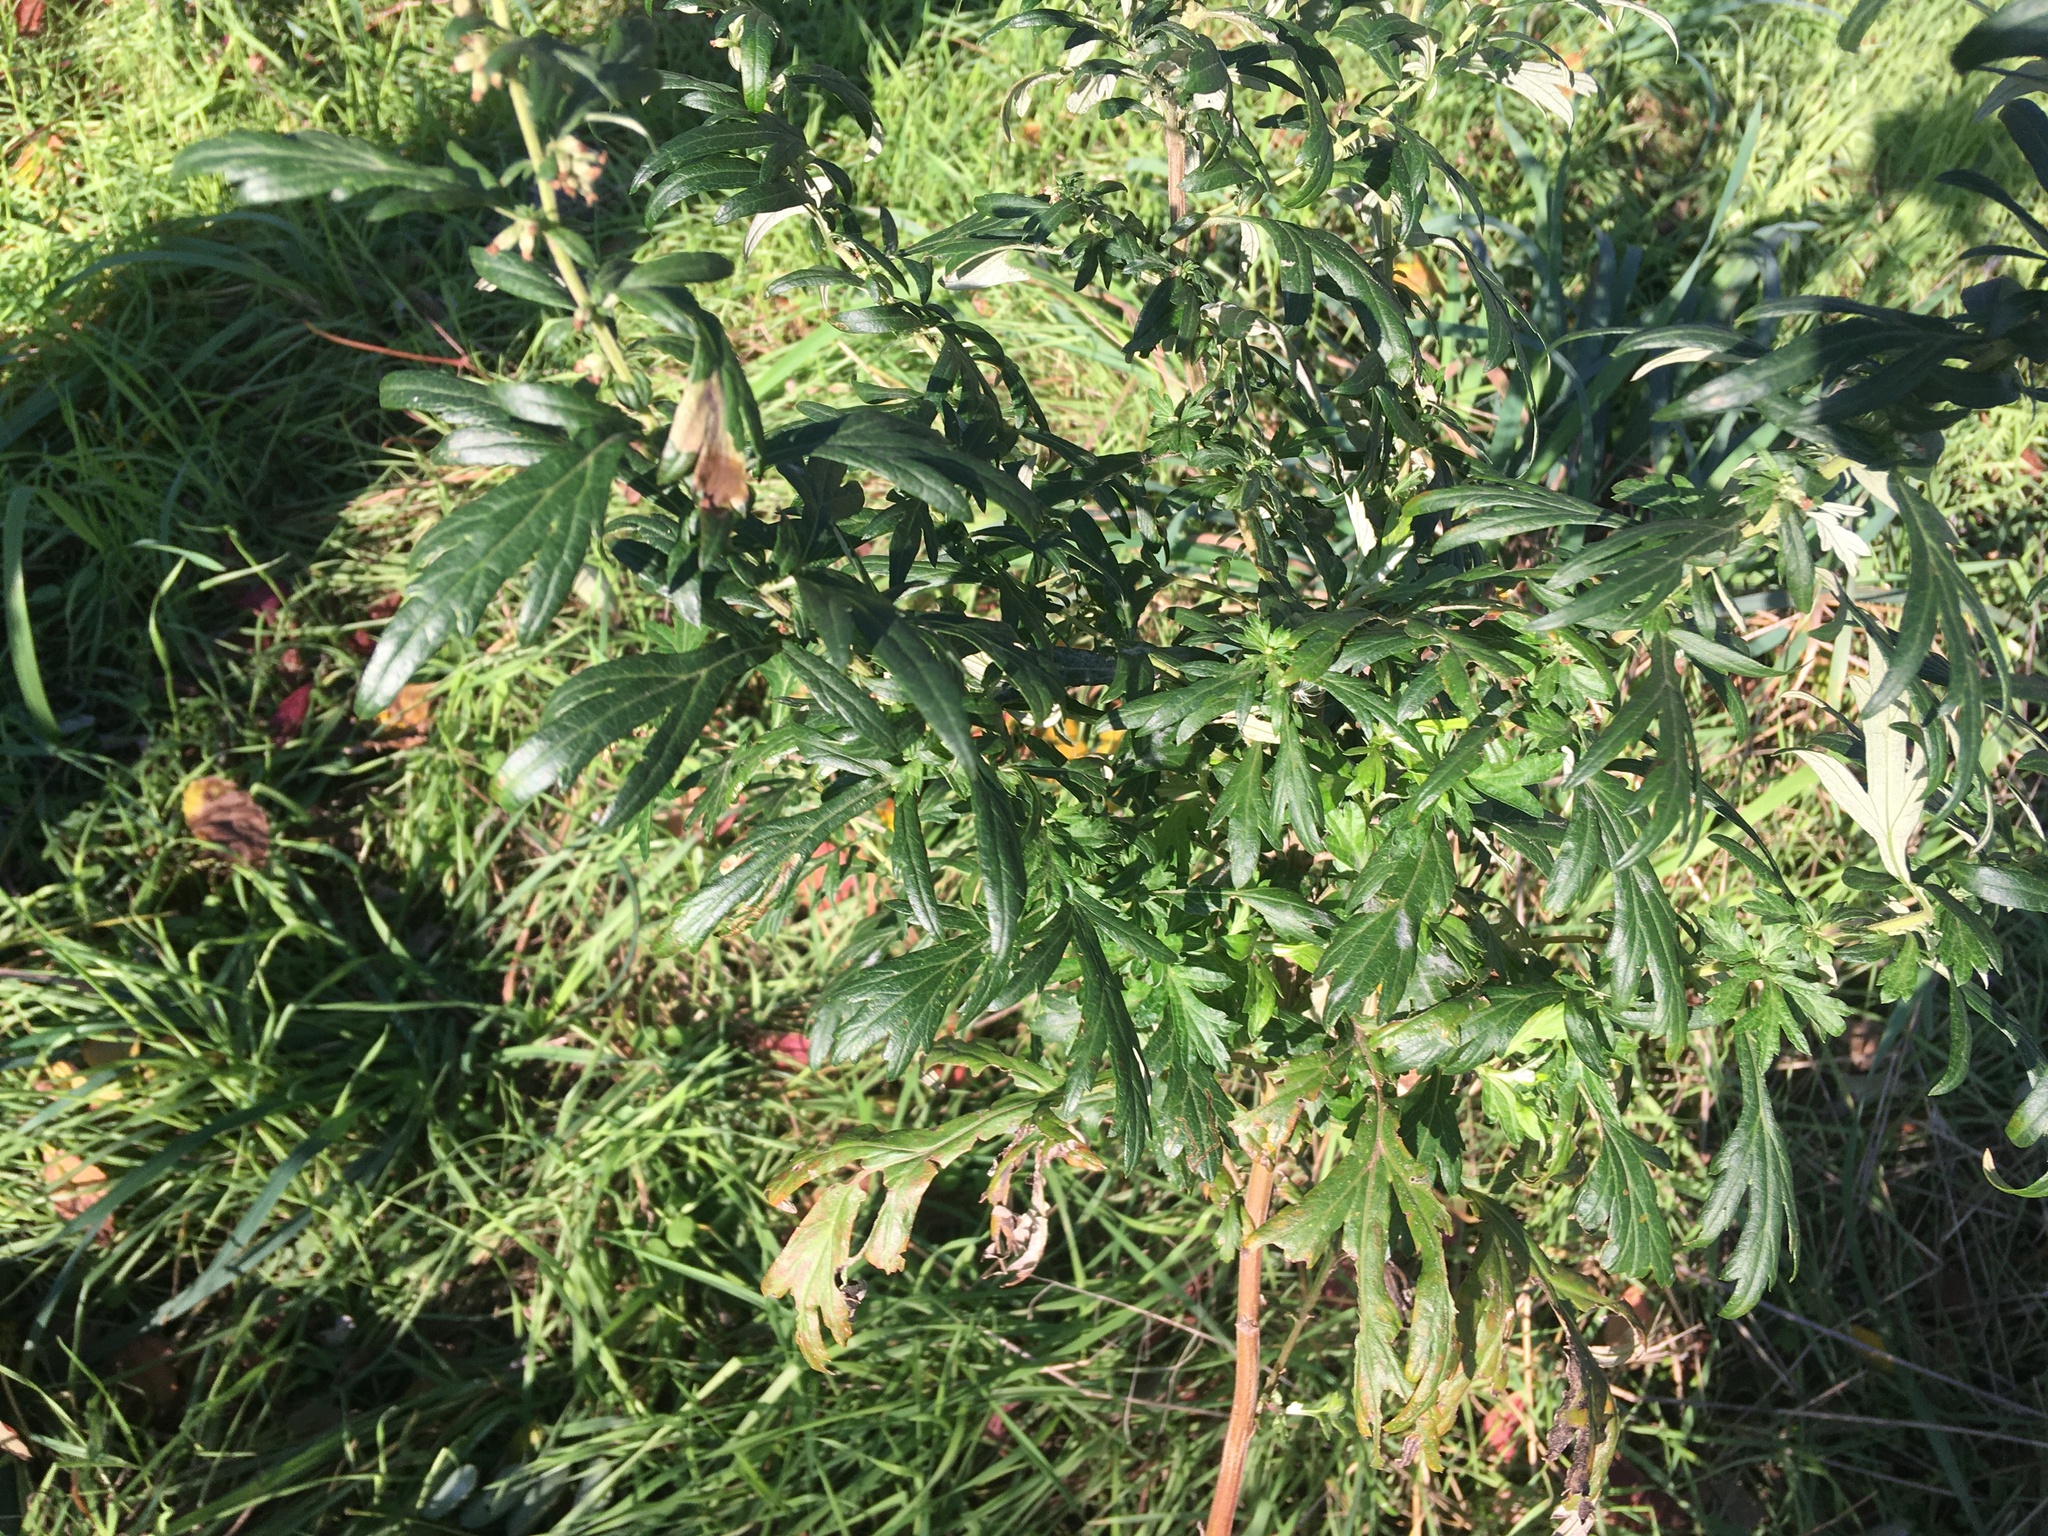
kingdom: Plantae
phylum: Tracheophyta
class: Magnoliopsida
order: Asterales
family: Asteraceae
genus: Artemisia
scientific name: Artemisia vulgaris
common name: Mugwort
